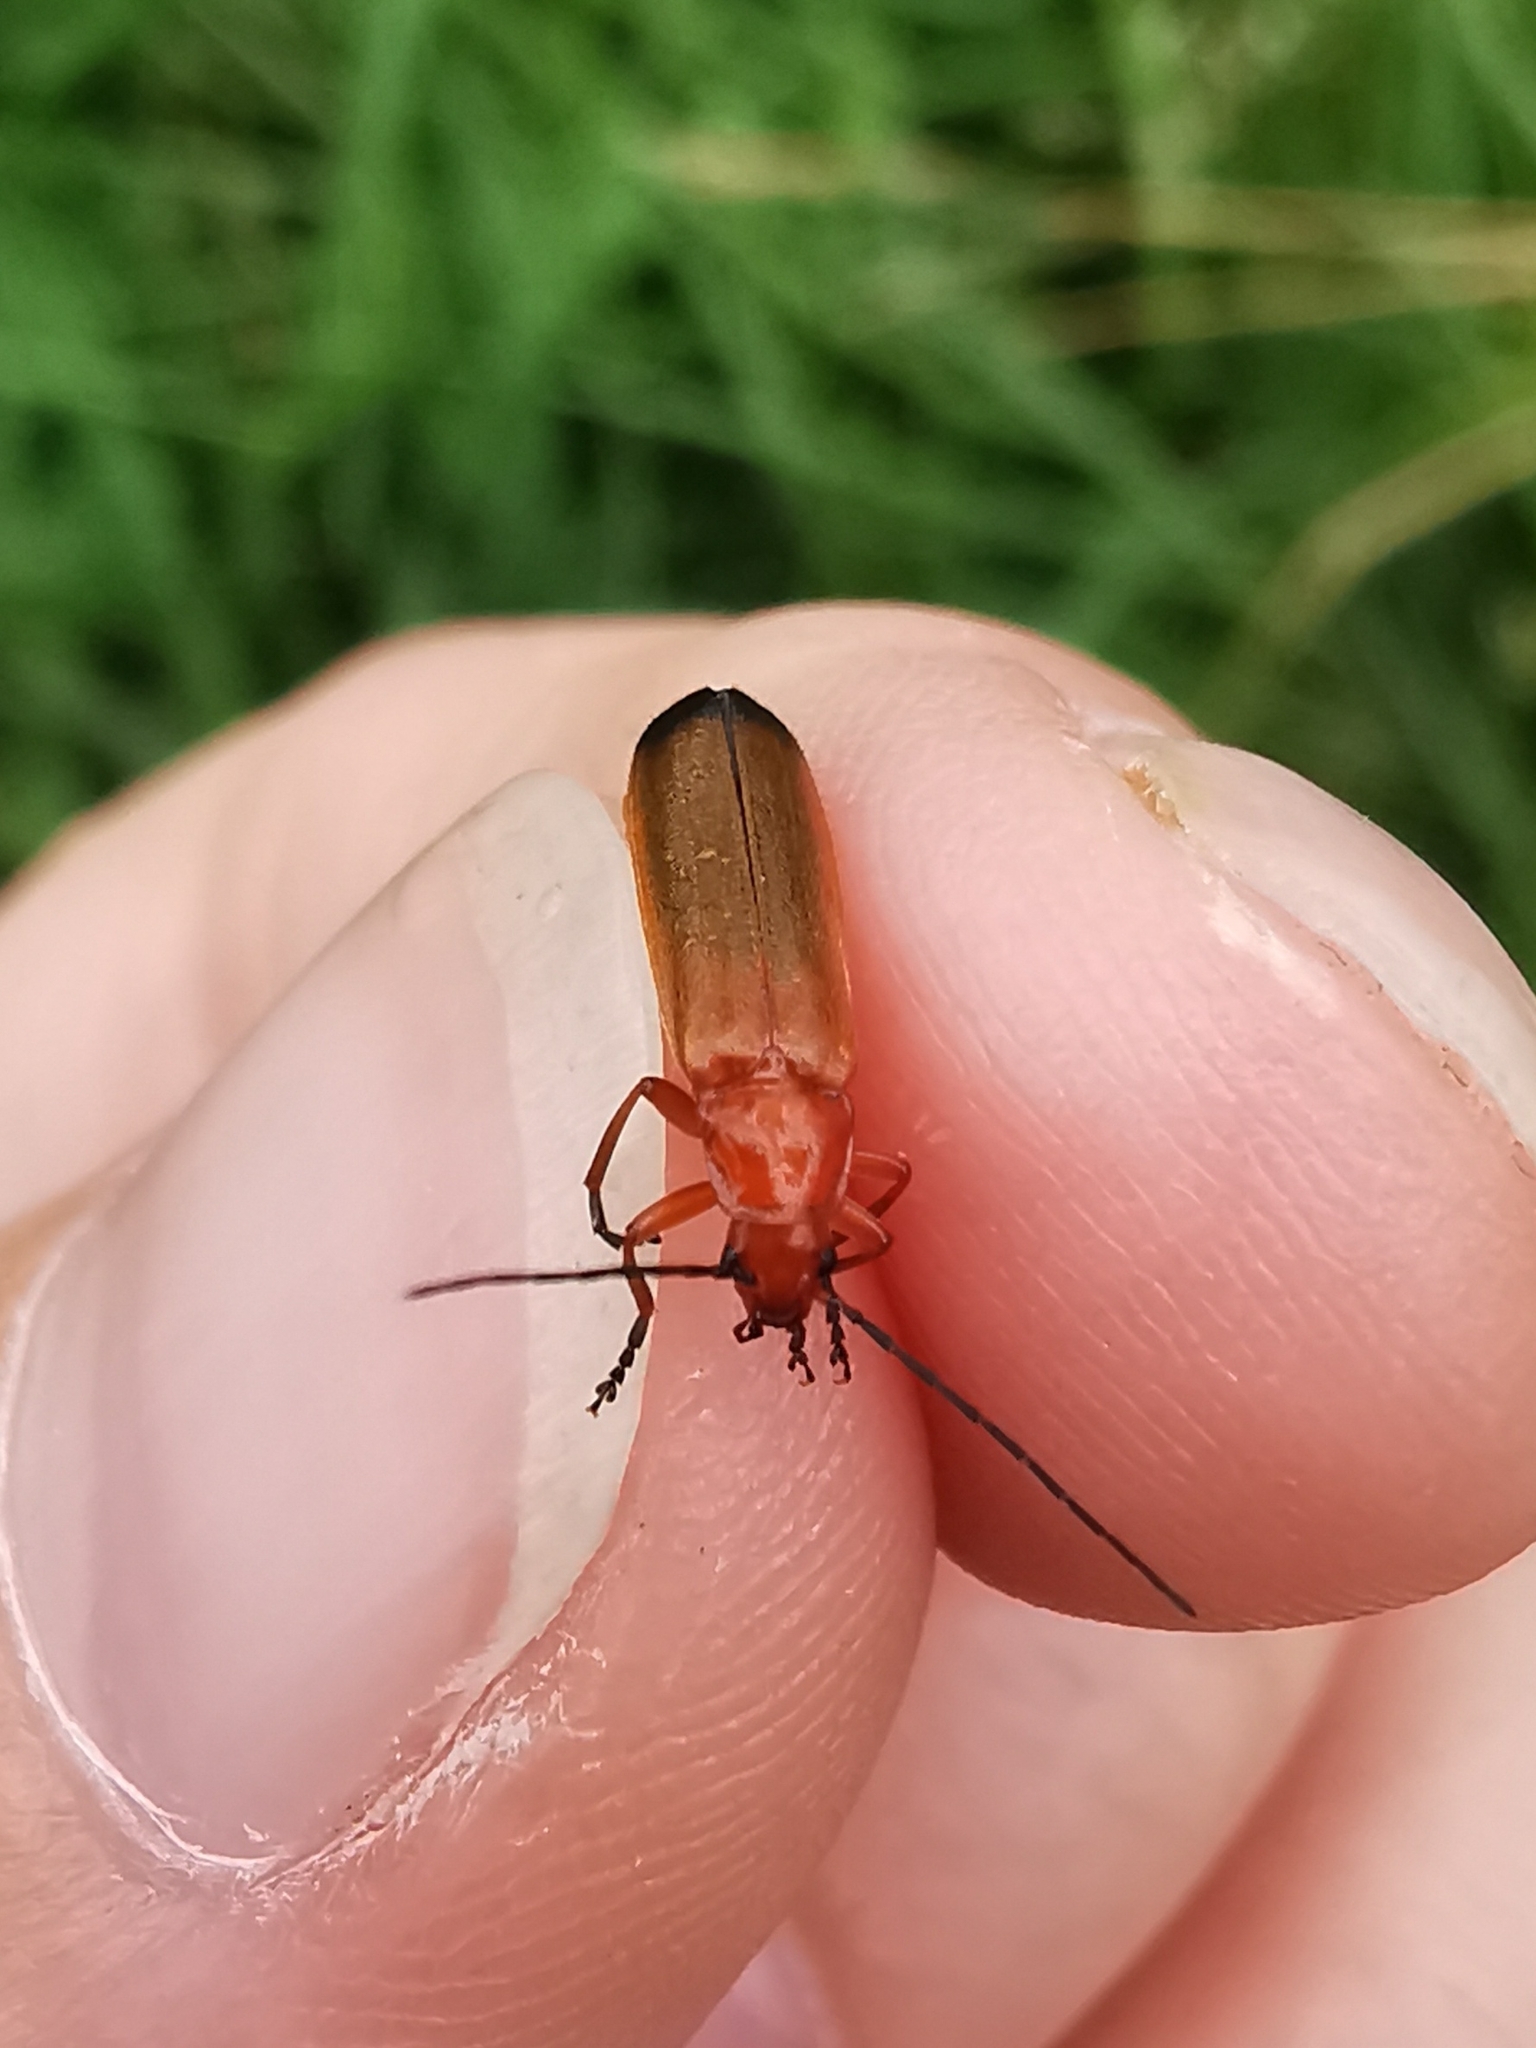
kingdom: Animalia
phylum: Arthropoda
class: Insecta
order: Coleoptera
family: Cantharidae
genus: Rhagonycha
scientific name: Rhagonycha fulva
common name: Common red soldier beetle
